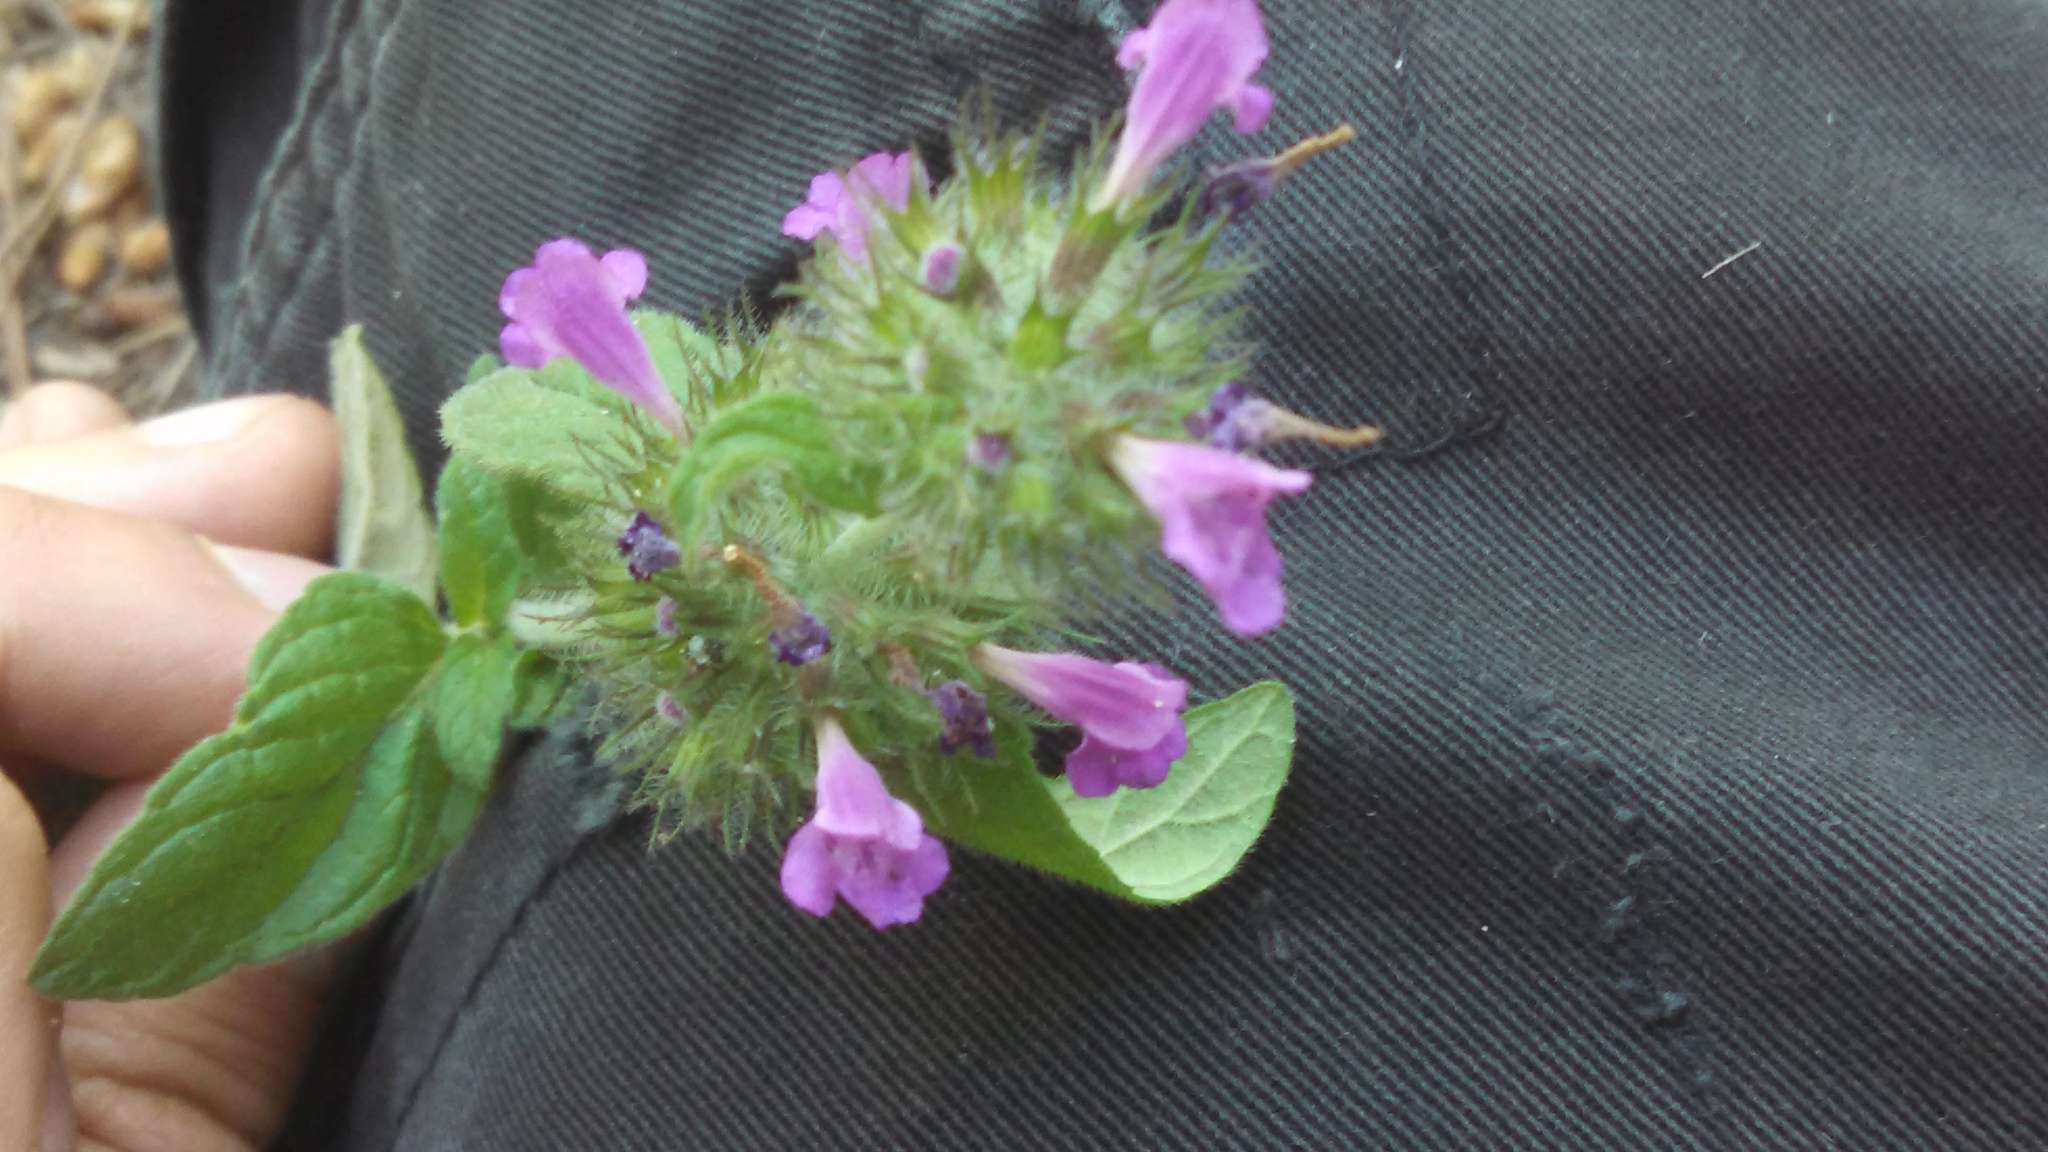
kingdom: Plantae
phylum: Tracheophyta
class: Magnoliopsida
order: Lamiales
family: Lamiaceae
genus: Clinopodium
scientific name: Clinopodium vulgare
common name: Wild basil
